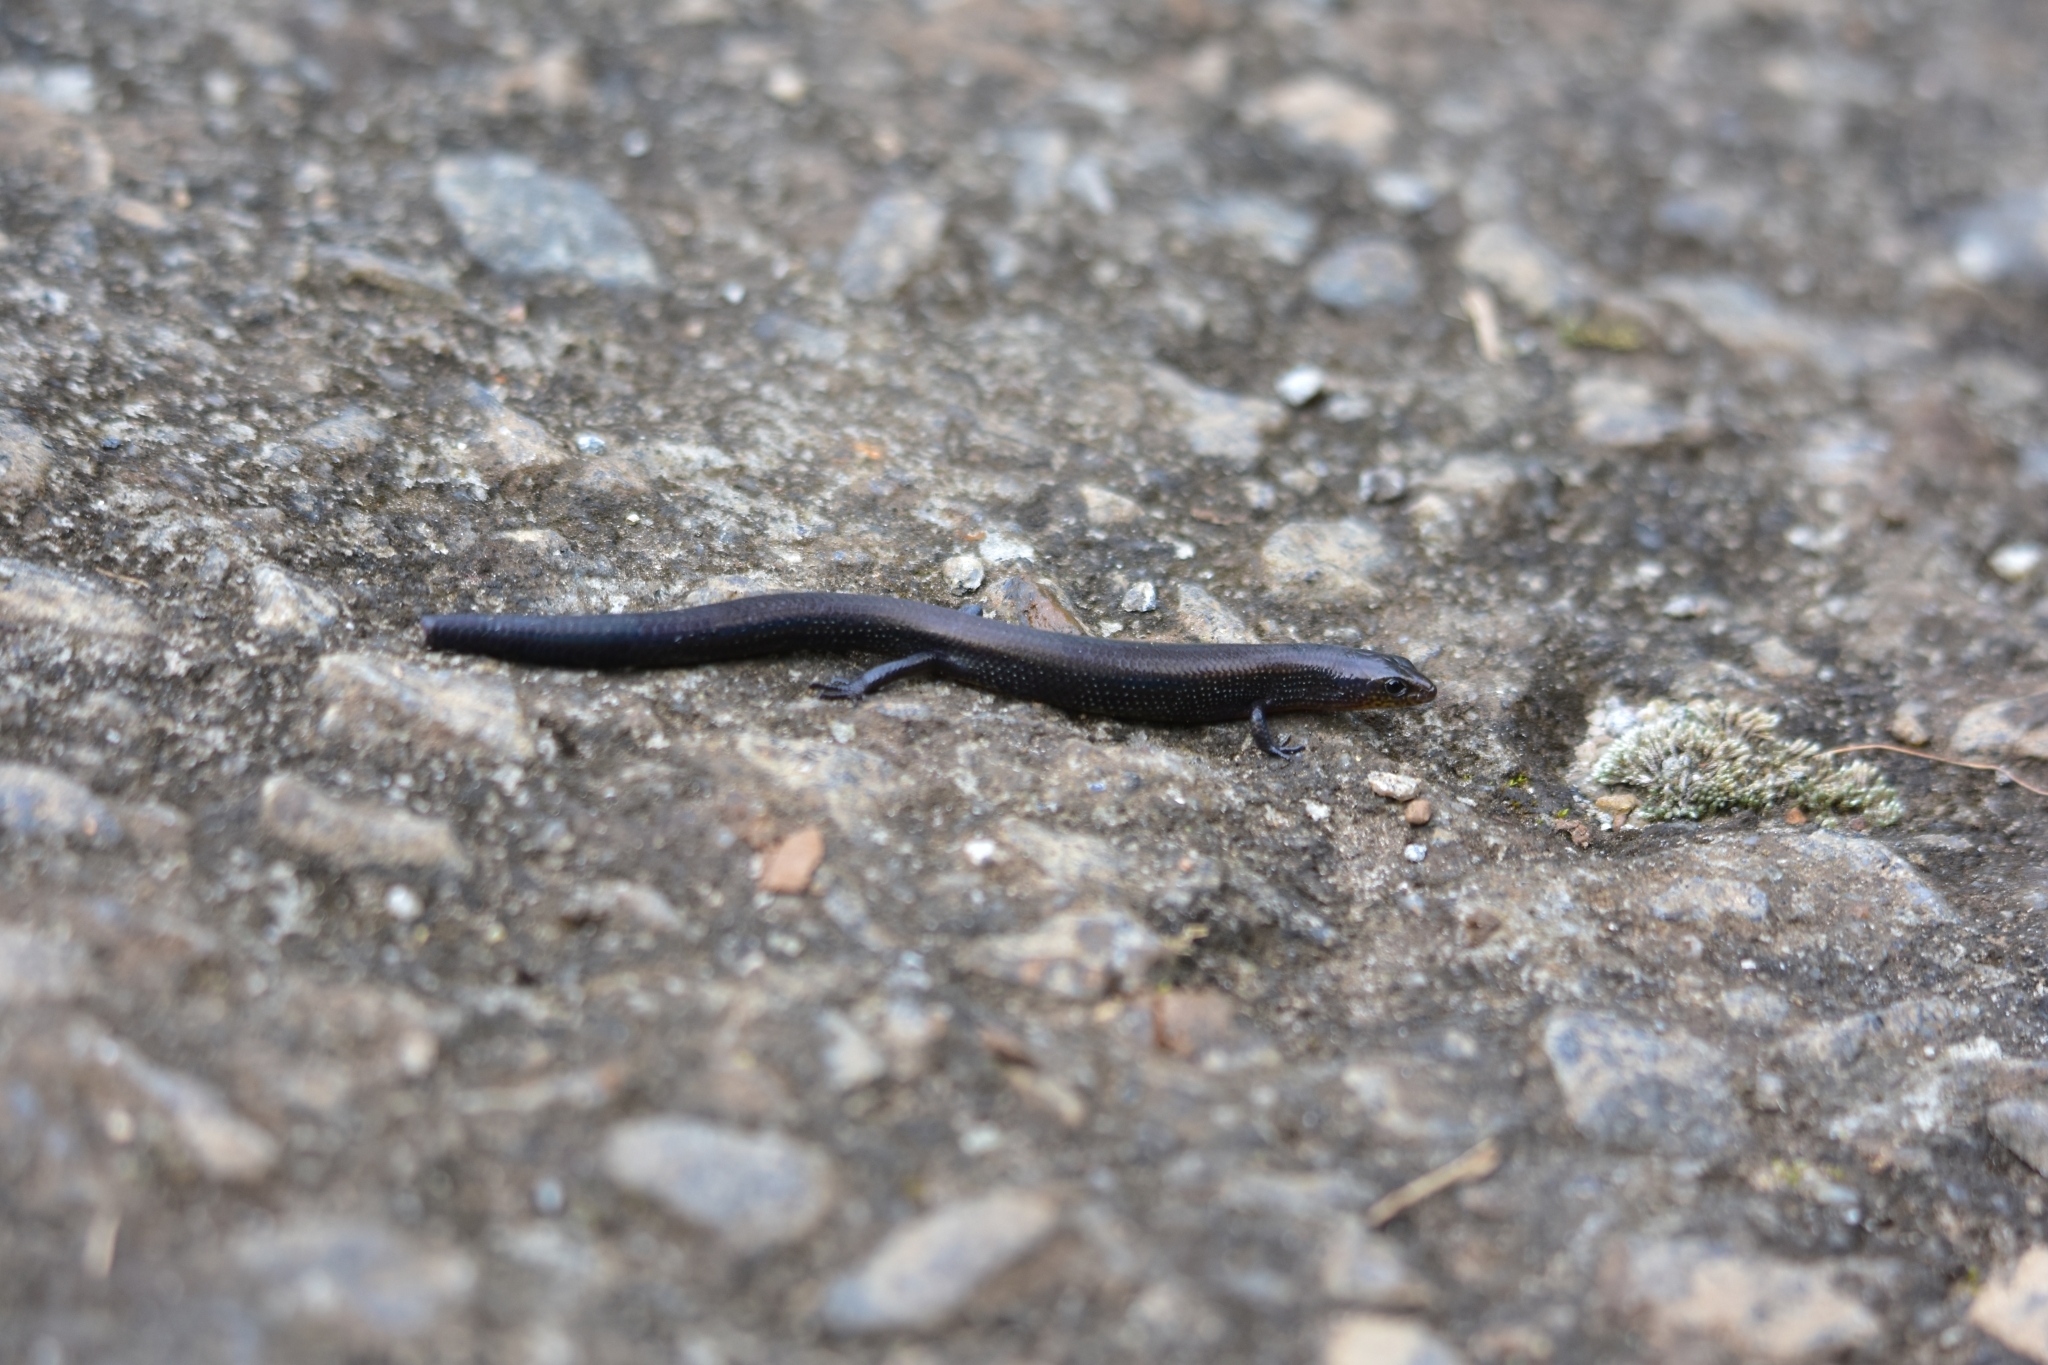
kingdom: Animalia
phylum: Chordata
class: Squamata
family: Scincidae
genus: Ristella
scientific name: Ristella rurkii
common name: Rurk's ristella
